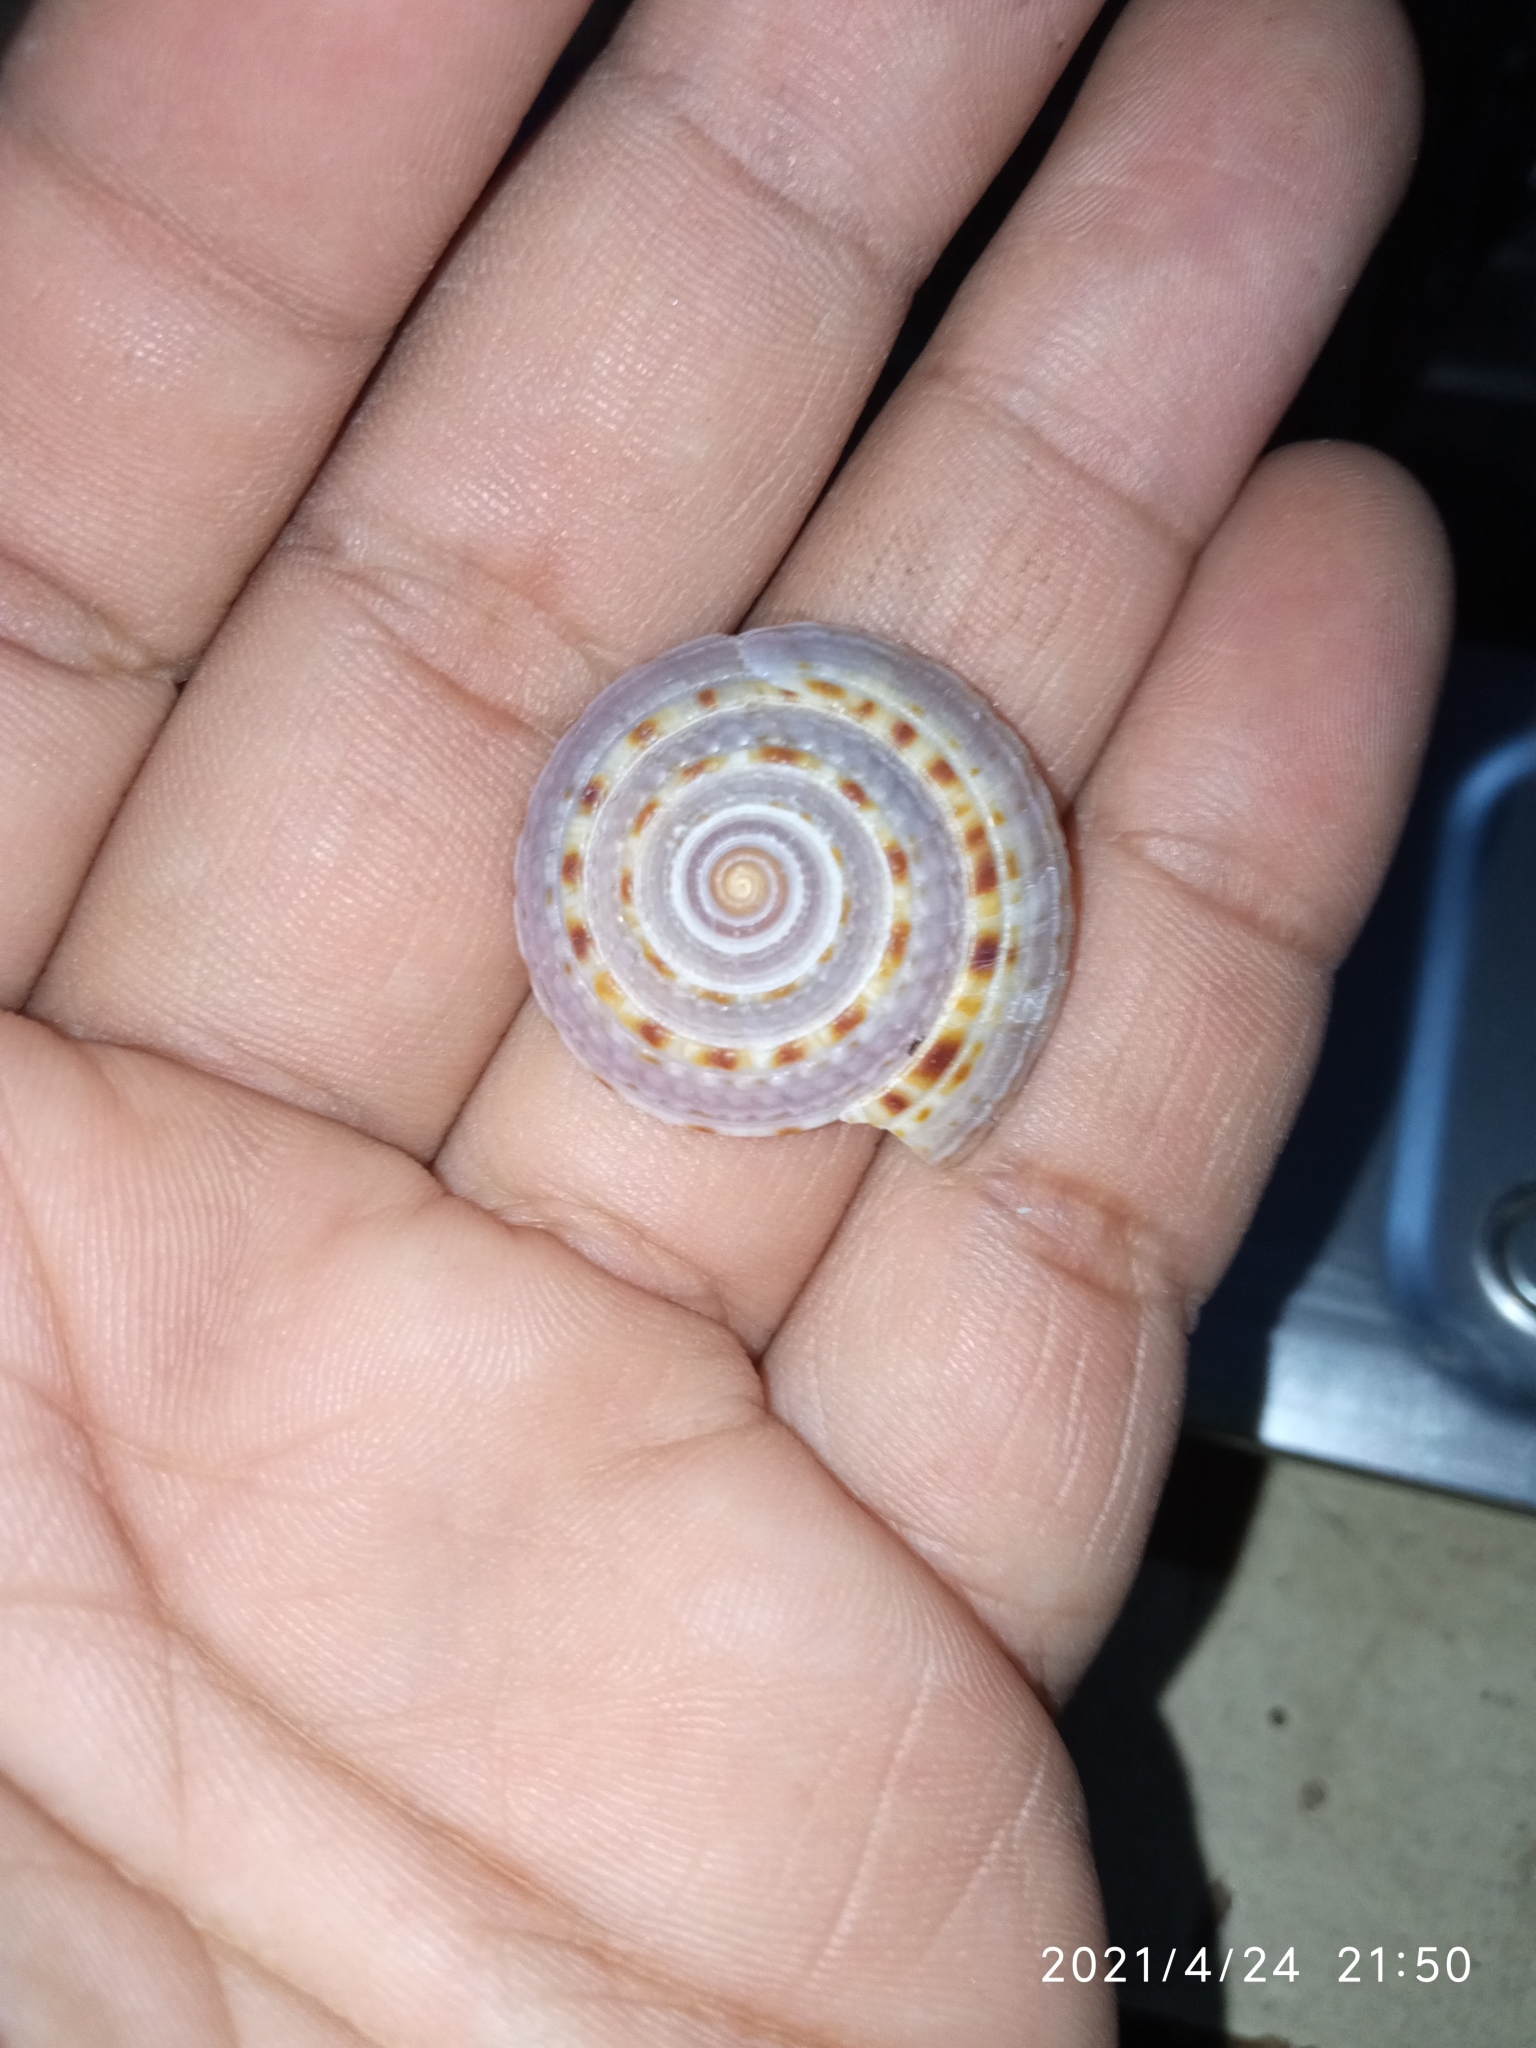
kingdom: Animalia
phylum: Mollusca
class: Gastropoda
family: Architectonicidae
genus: Architectonica
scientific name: Architectonica nobilis
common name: Common sundial
